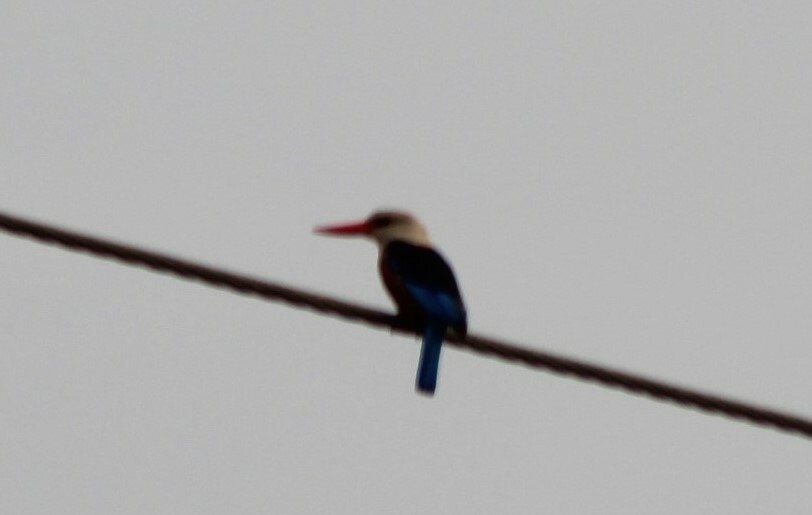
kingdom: Animalia
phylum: Chordata
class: Aves
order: Coraciiformes
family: Alcedinidae
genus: Halcyon
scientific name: Halcyon leucocephala
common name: Grey-headed kingfisher
